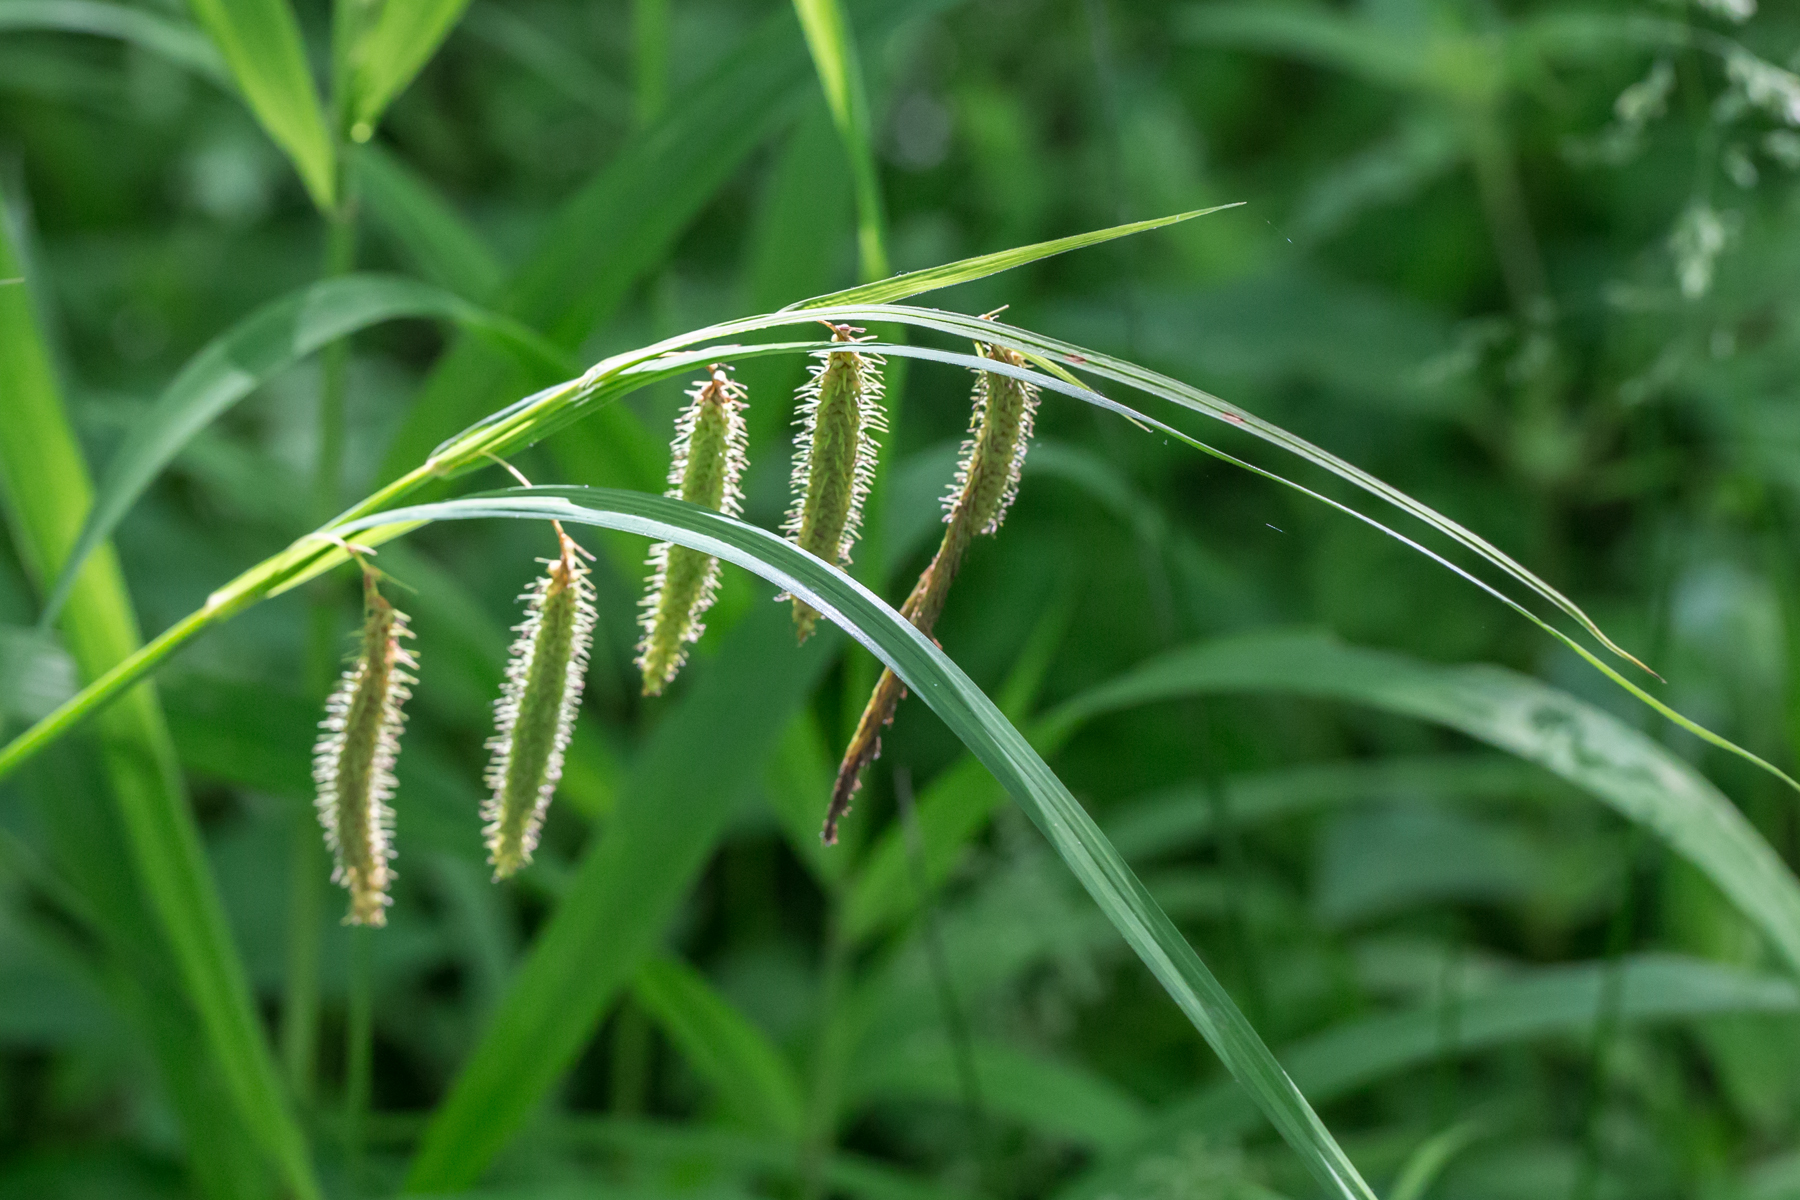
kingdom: Plantae
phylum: Tracheophyta
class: Liliopsida
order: Poales
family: Cyperaceae
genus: Carex
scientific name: Carex crinita
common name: Fringed sedge
